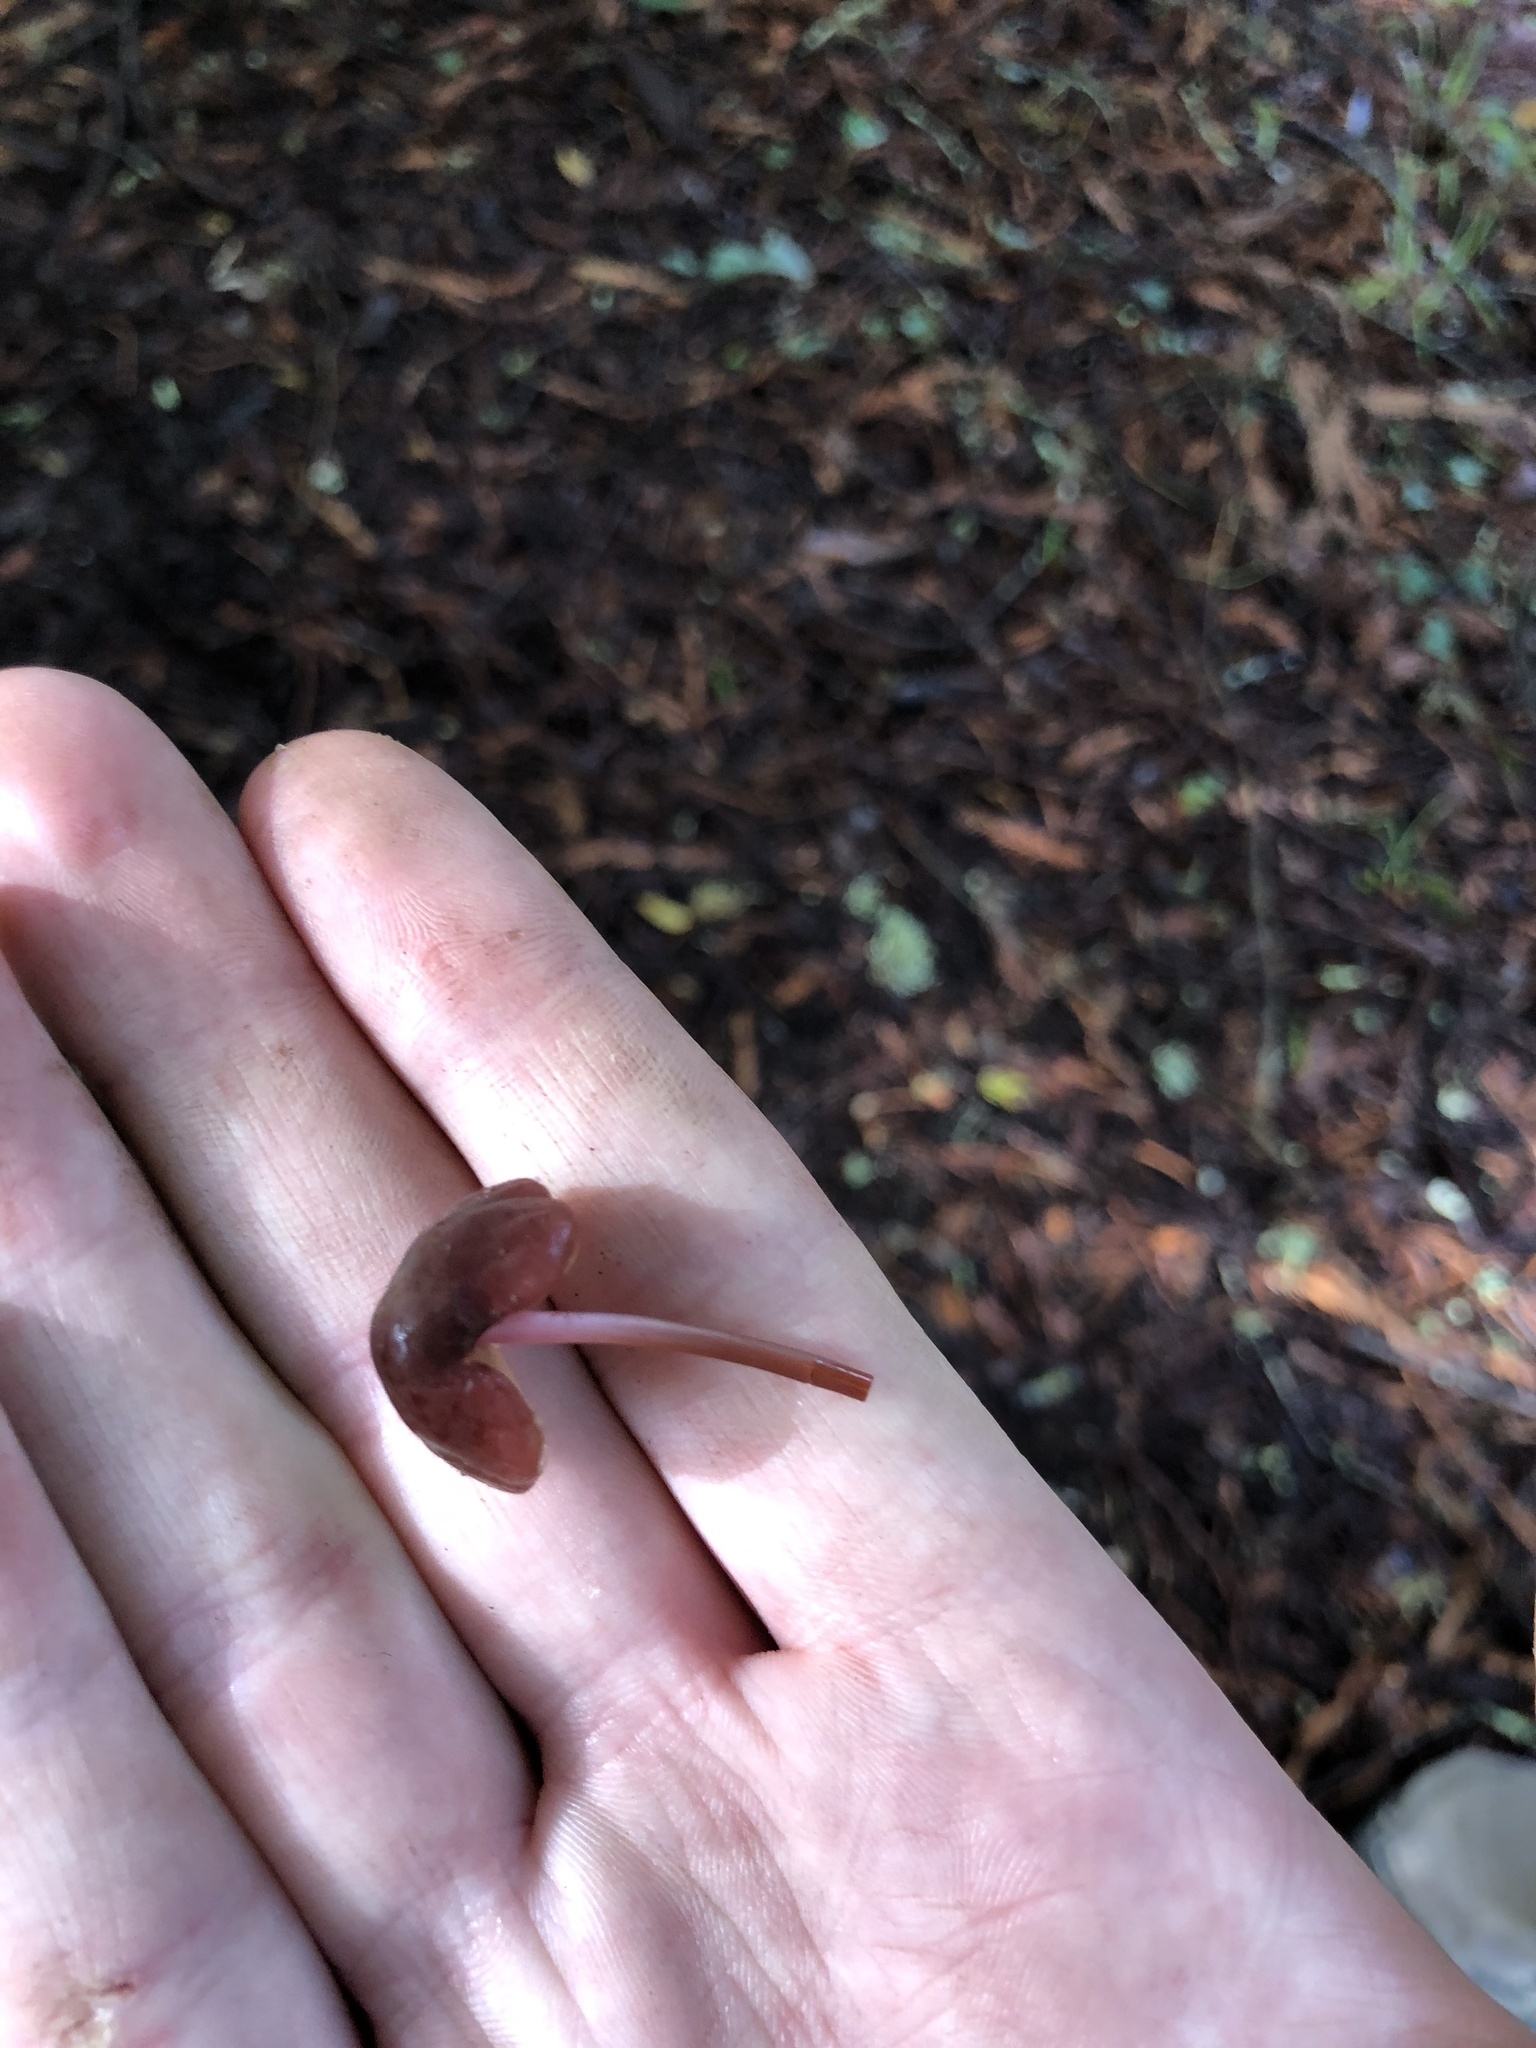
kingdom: Fungi
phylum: Basidiomycota
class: Agaricomycetes
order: Agaricales
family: Marasmiaceae
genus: Marasmius
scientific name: Marasmius plicatulus
